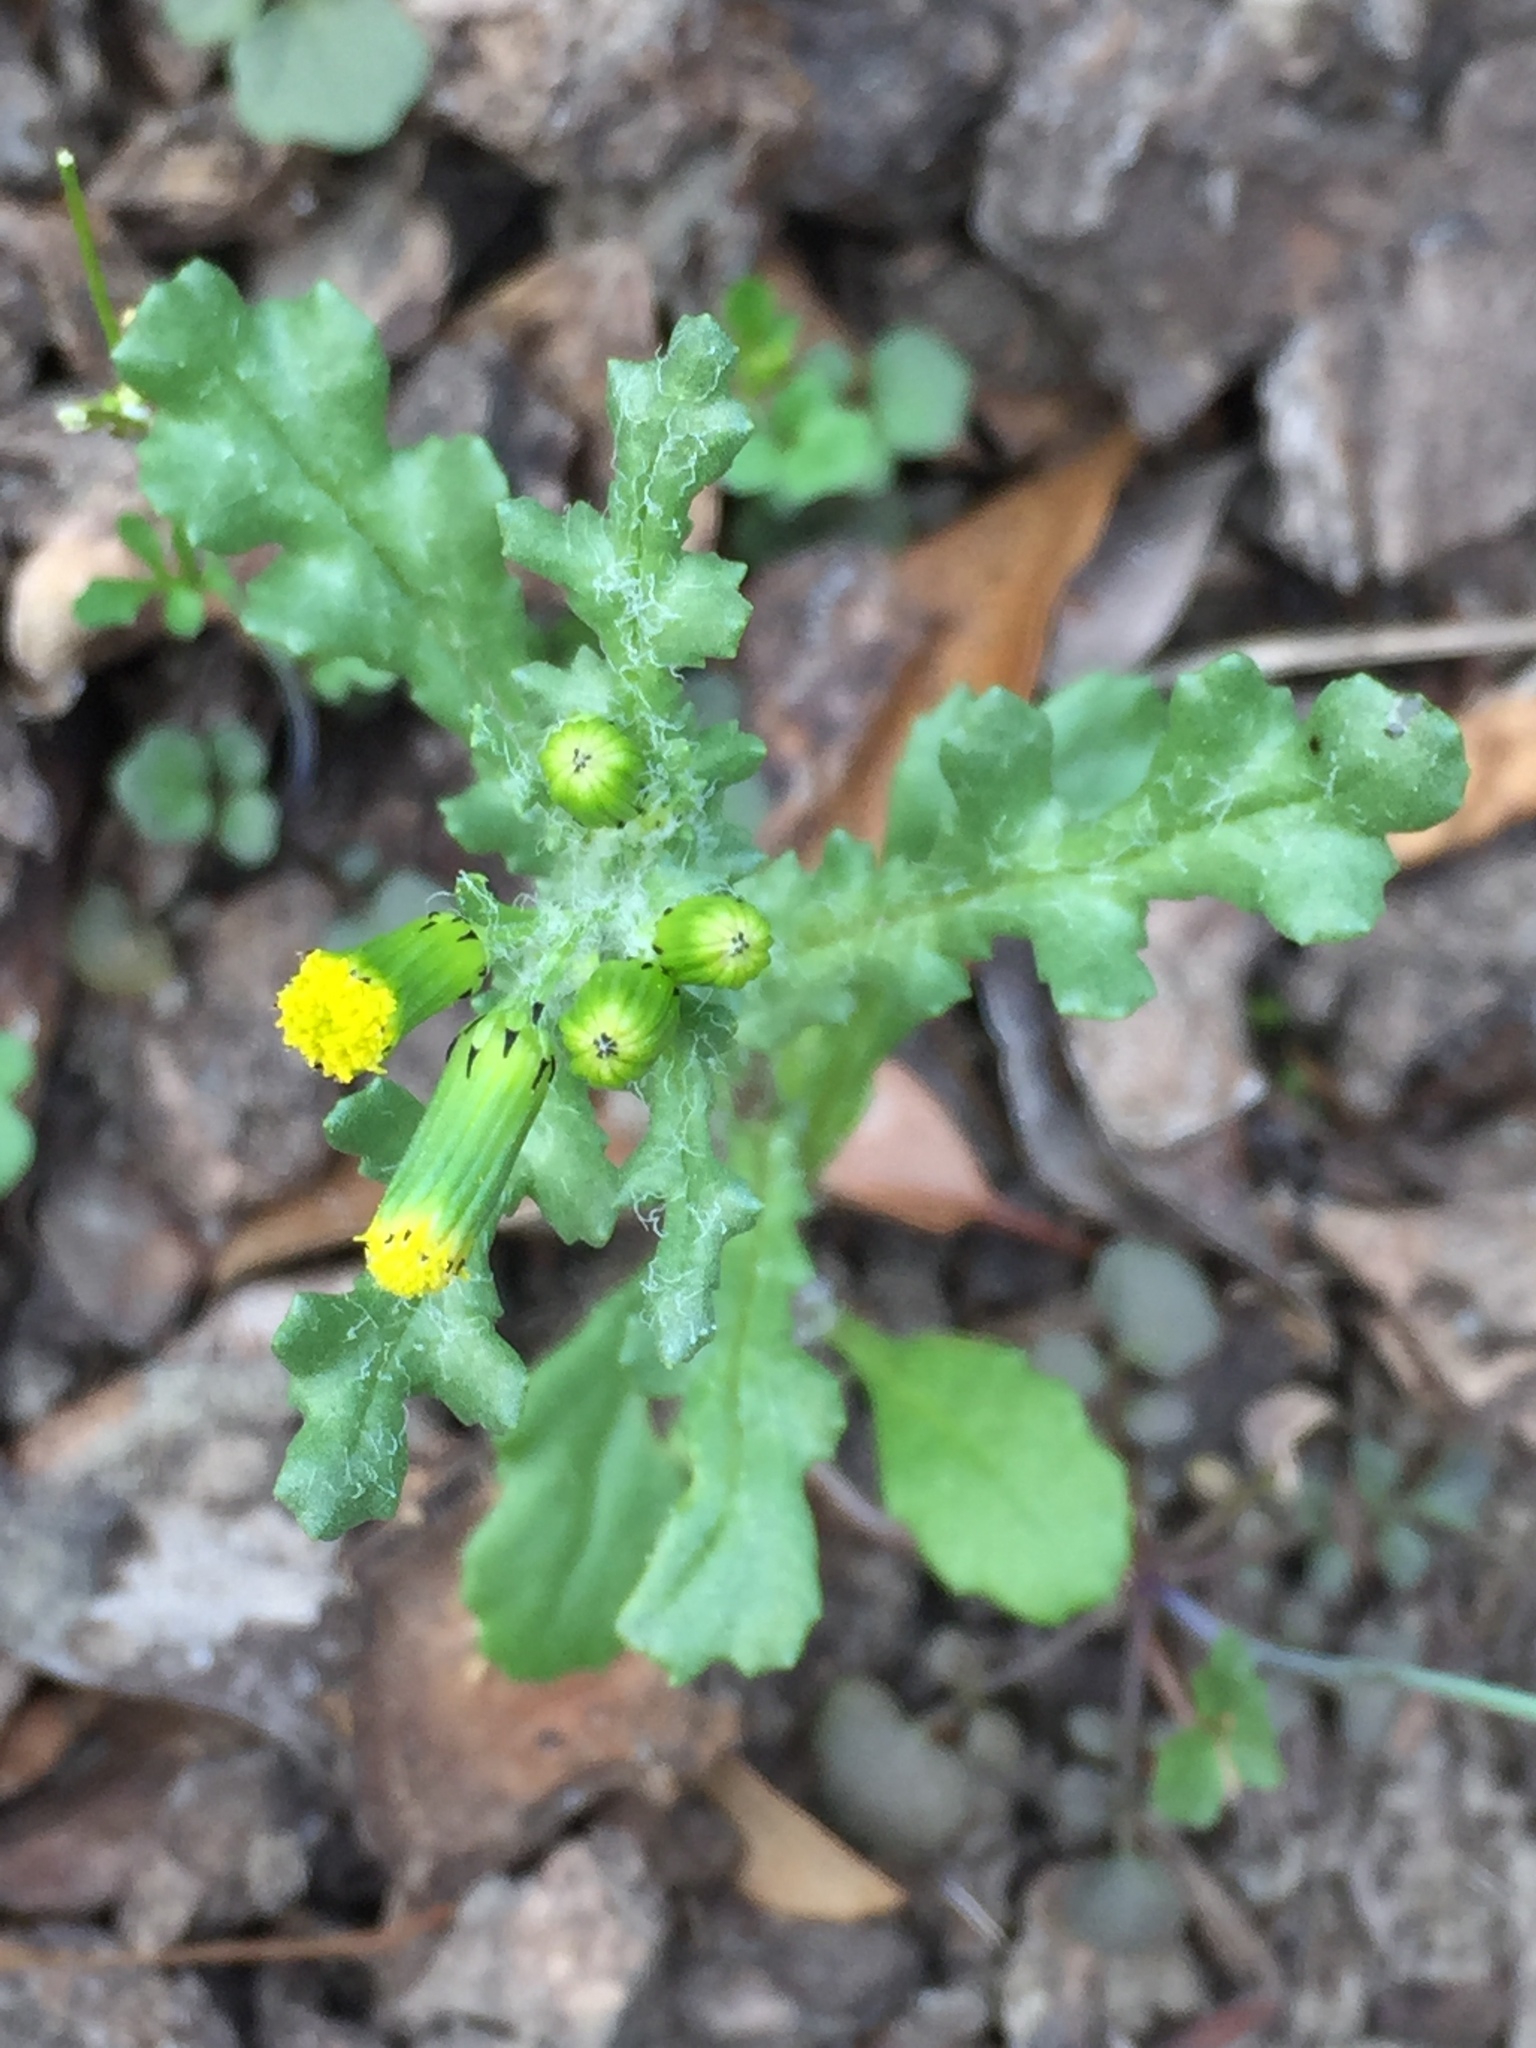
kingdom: Plantae
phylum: Tracheophyta
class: Magnoliopsida
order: Asterales
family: Asteraceae
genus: Senecio
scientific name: Senecio vulgaris
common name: Old-man-in-the-spring
